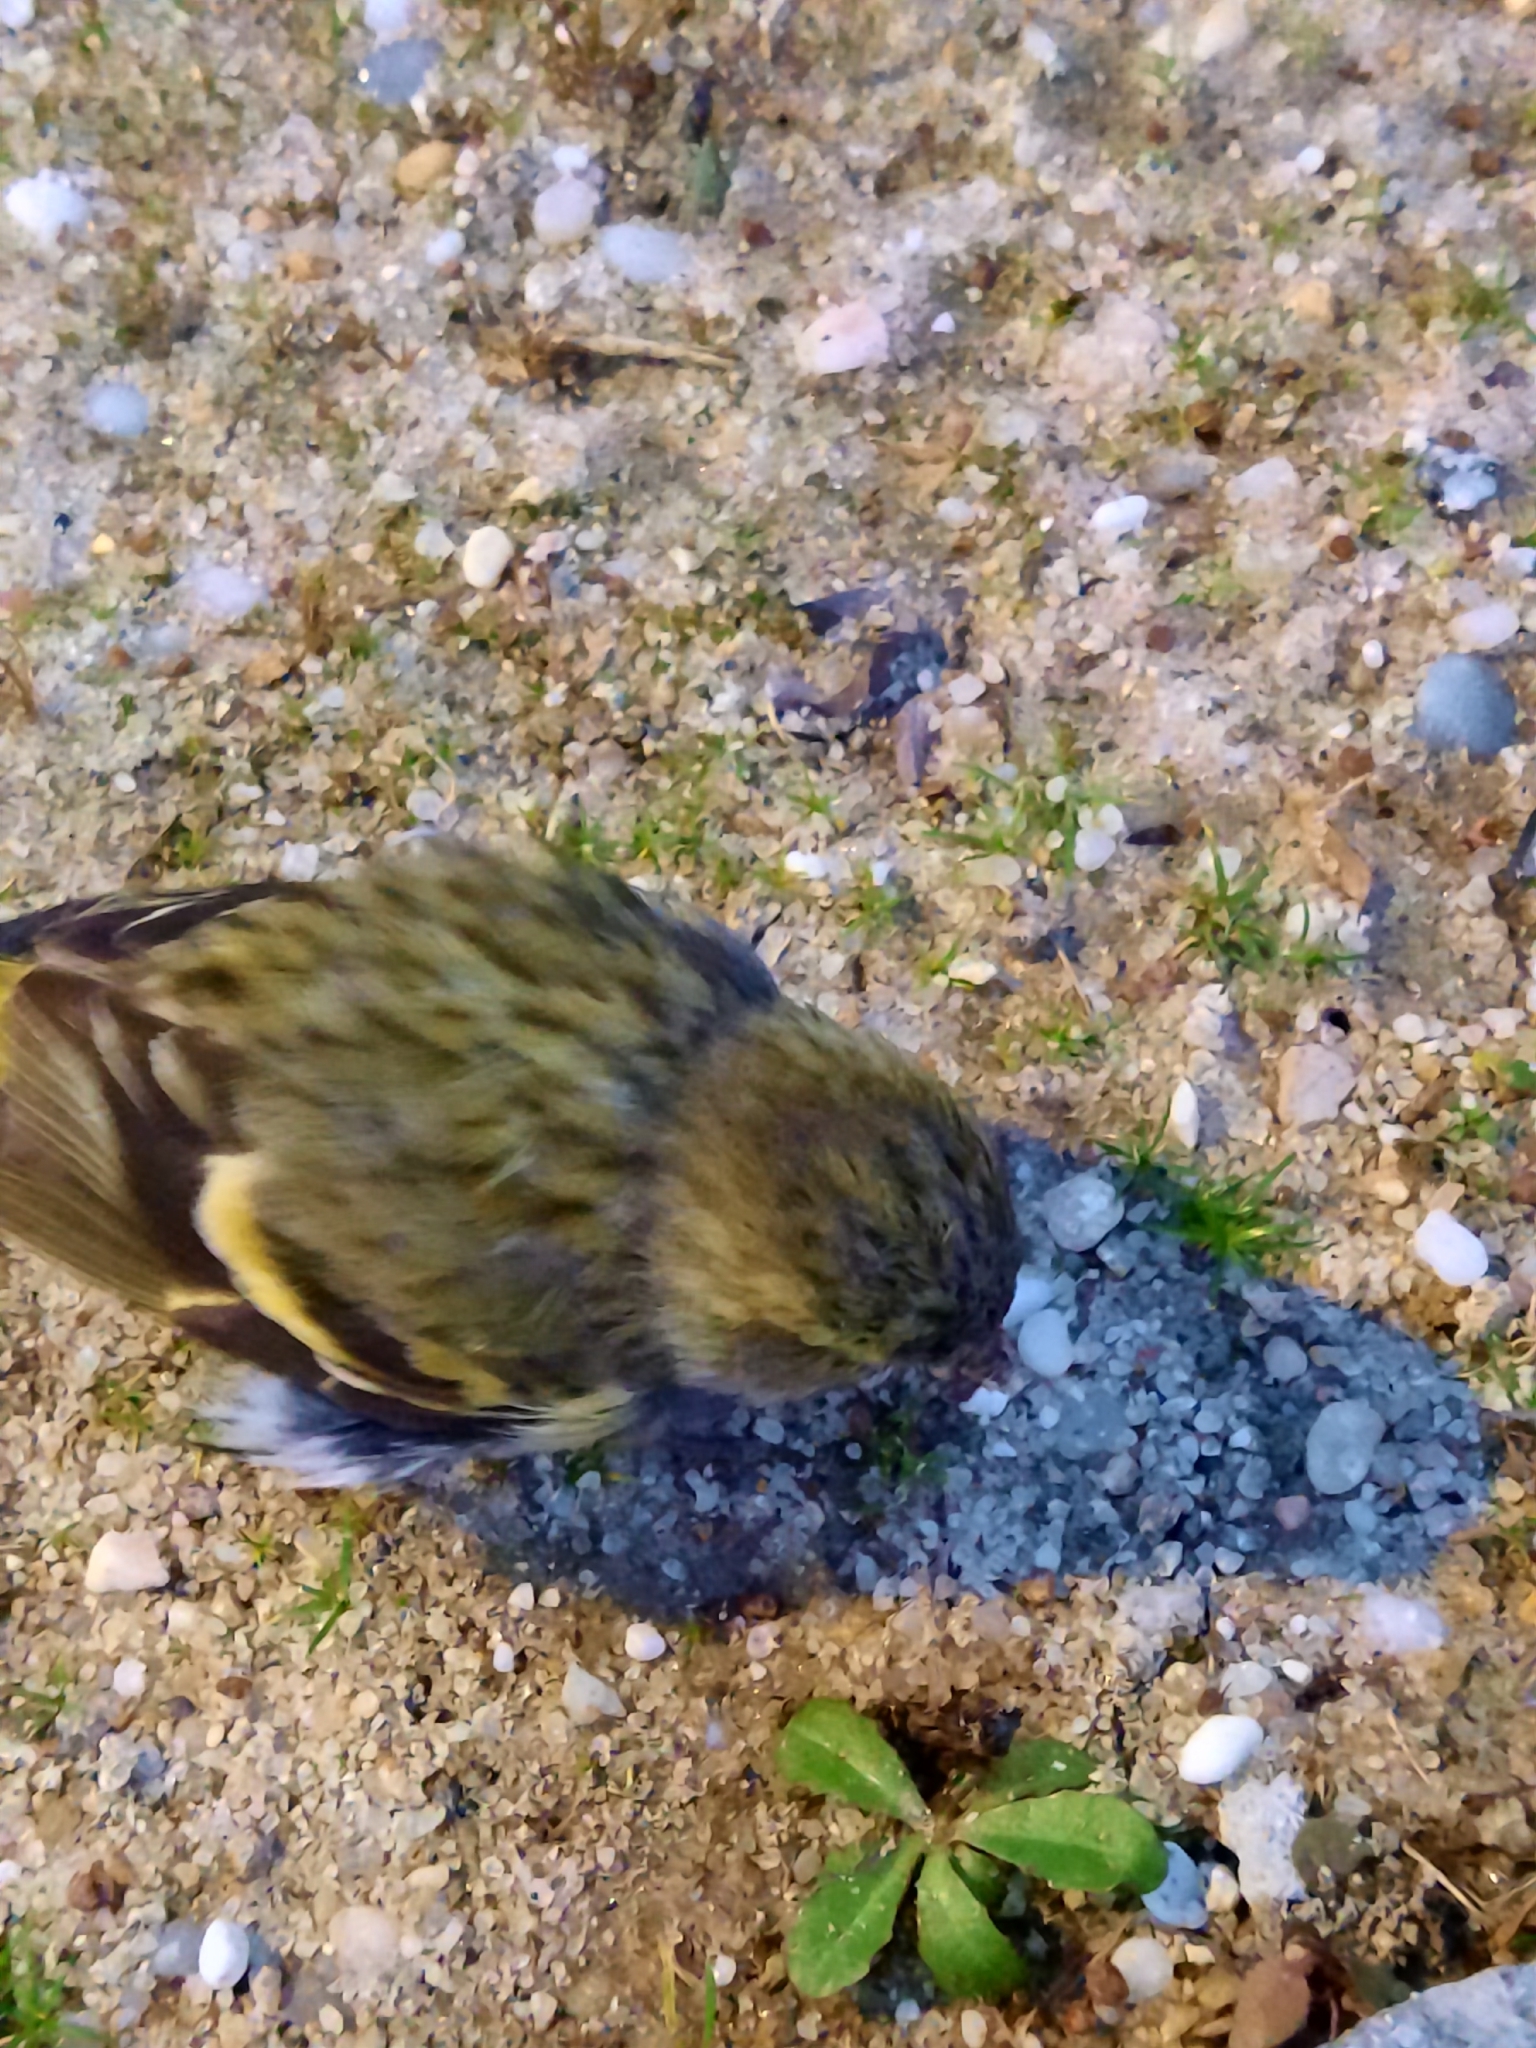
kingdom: Animalia
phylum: Chordata
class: Aves
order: Passeriformes
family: Fringillidae
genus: Spinus
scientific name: Spinus spinus
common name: Eurasian siskin
